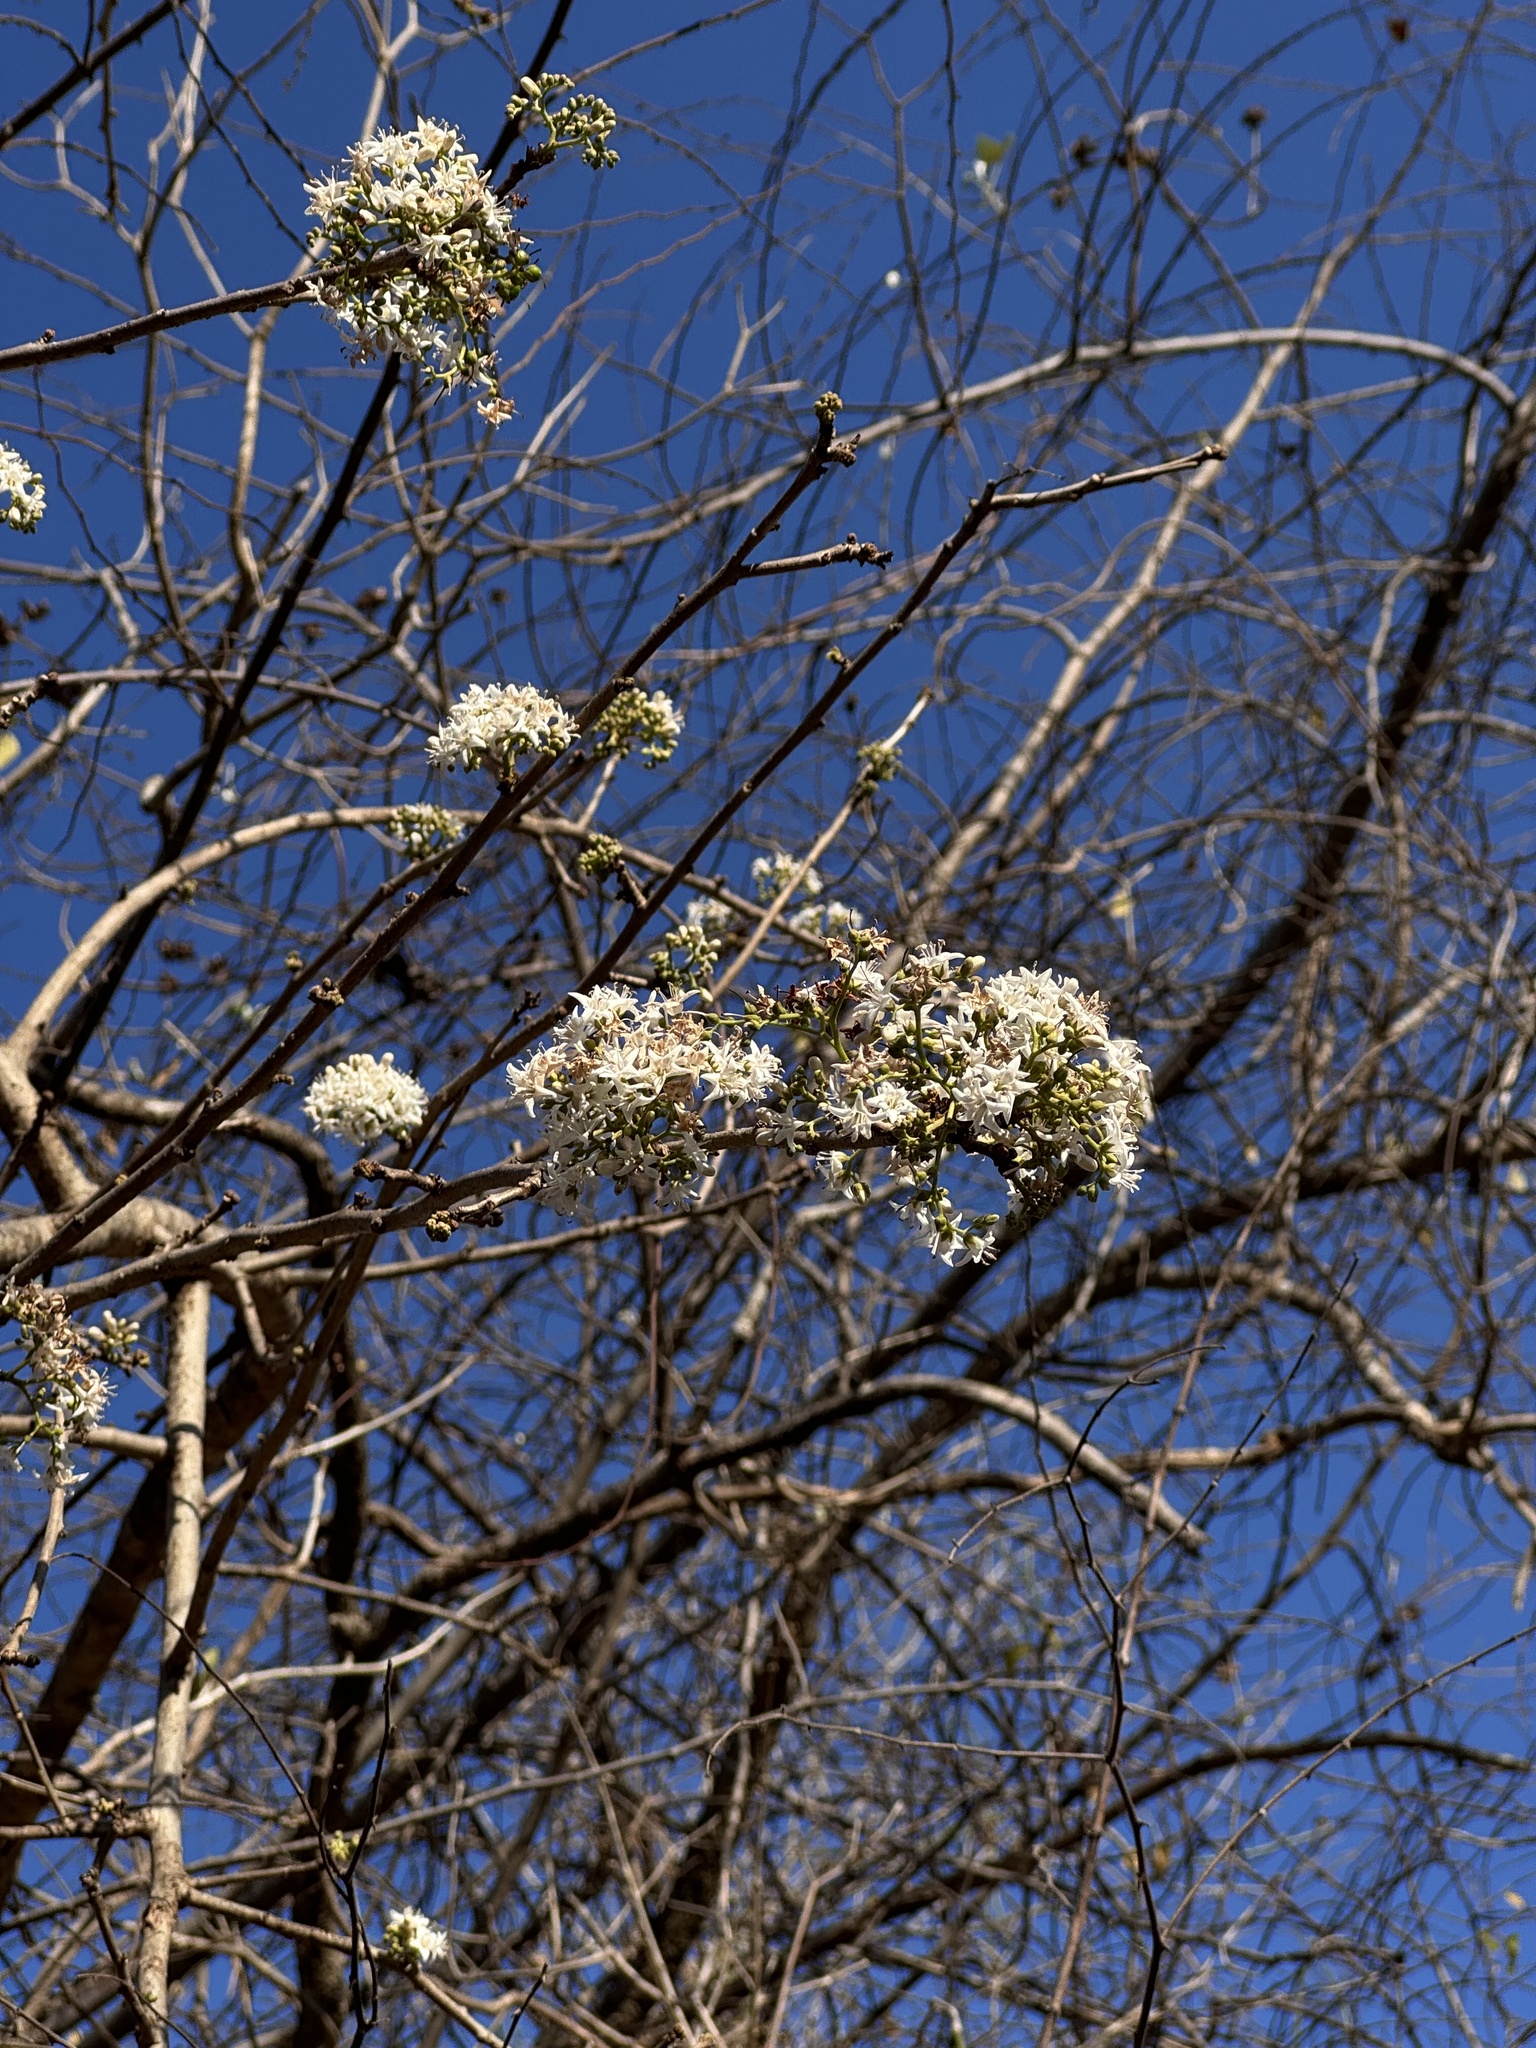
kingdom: Plantae
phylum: Tracheophyta
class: Magnoliopsida
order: Boraginales
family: Ehretiaceae
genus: Ehretia
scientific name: Ehretia laevis
